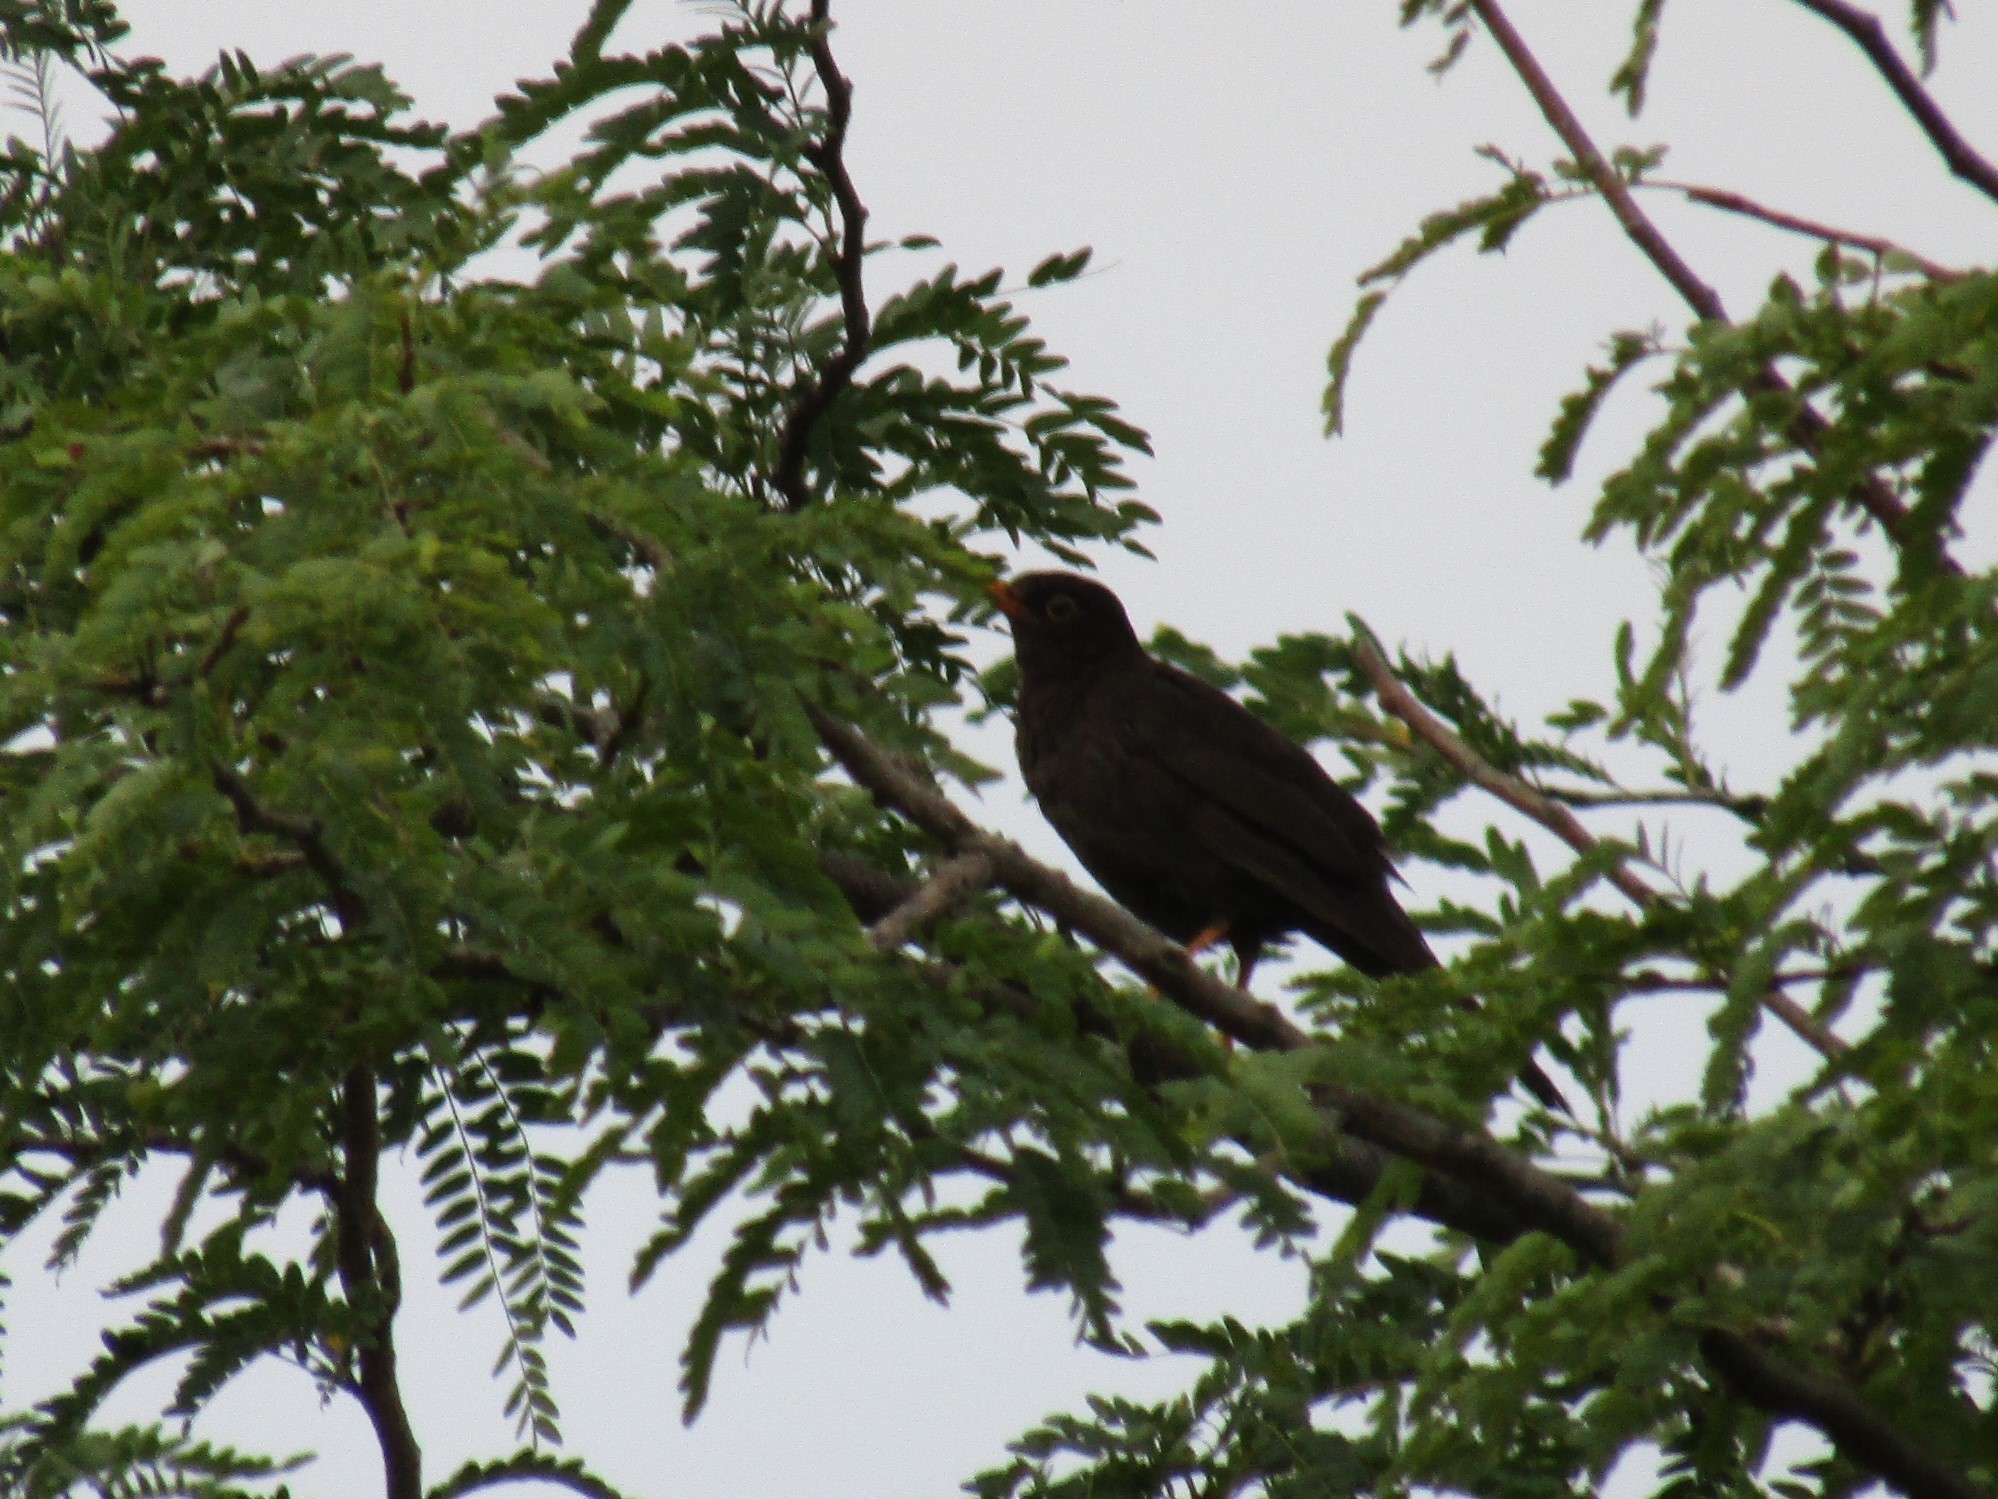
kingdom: Animalia
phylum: Chordata
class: Aves
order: Passeriformes
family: Turdidae
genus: Turdus
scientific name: Turdus chiguanco
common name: Chiguanco thrush
